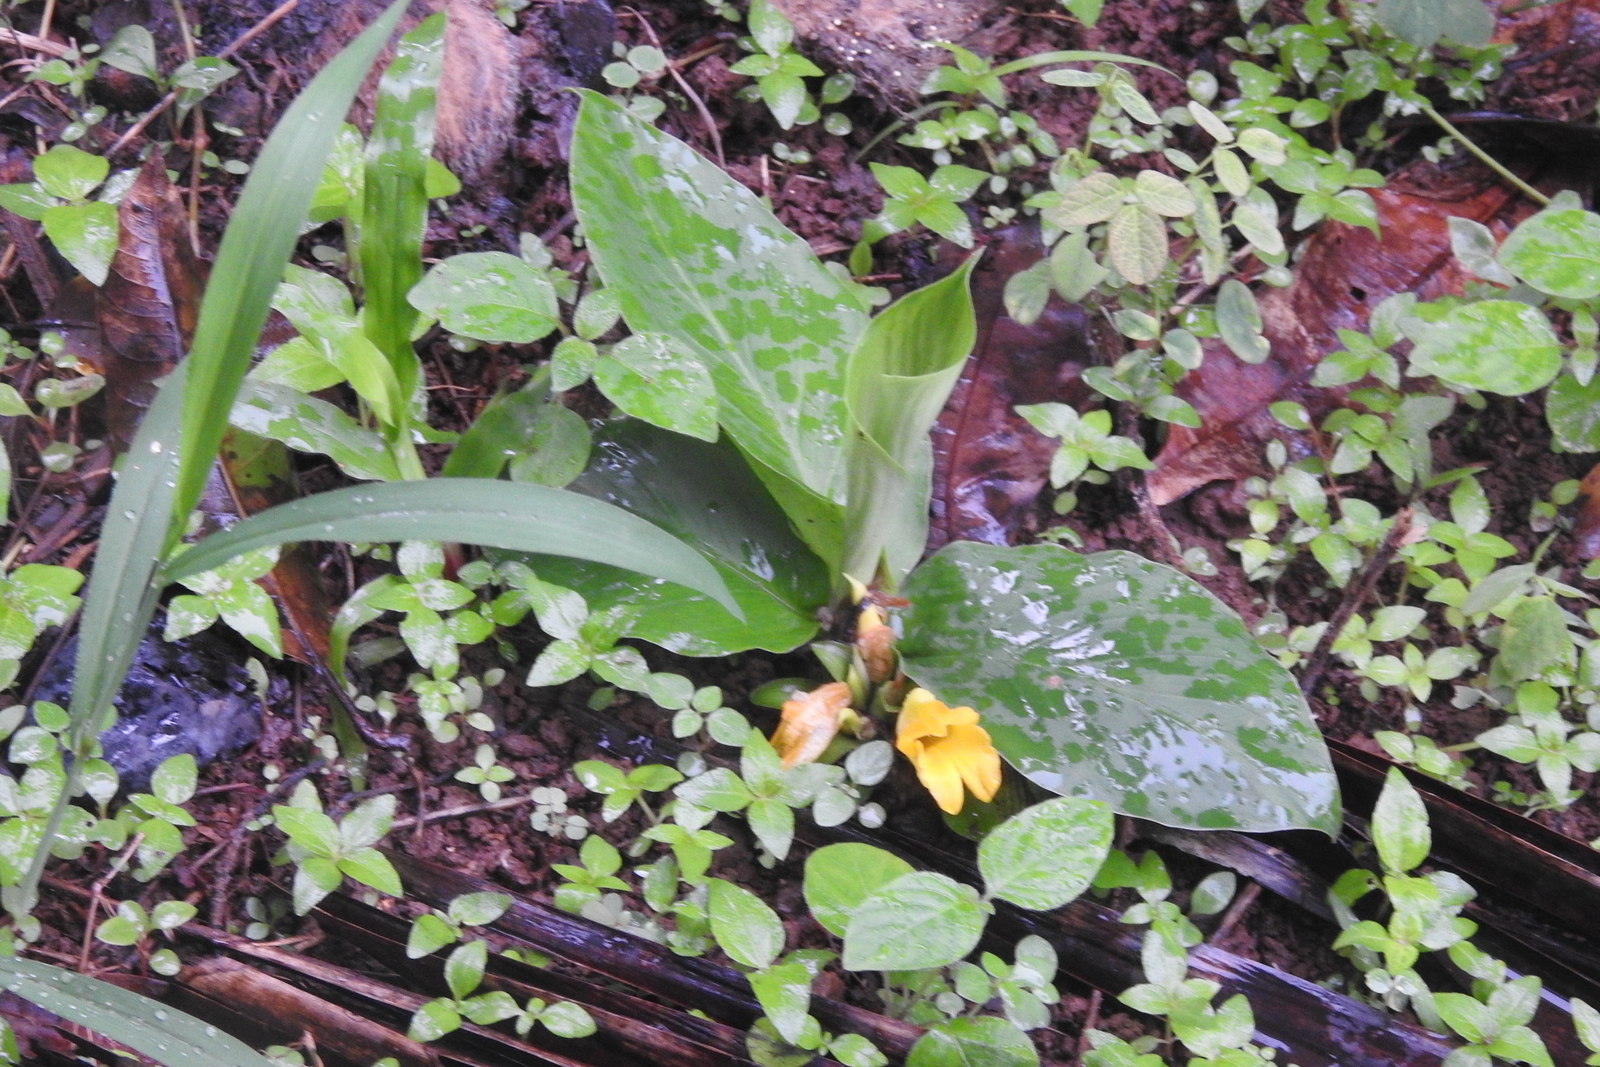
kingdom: Plantae
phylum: Tracheophyta
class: Liliopsida
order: Zingiberales
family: Zingiberaceae
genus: Curcuma
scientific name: Curcuma longa
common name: Turmeric
